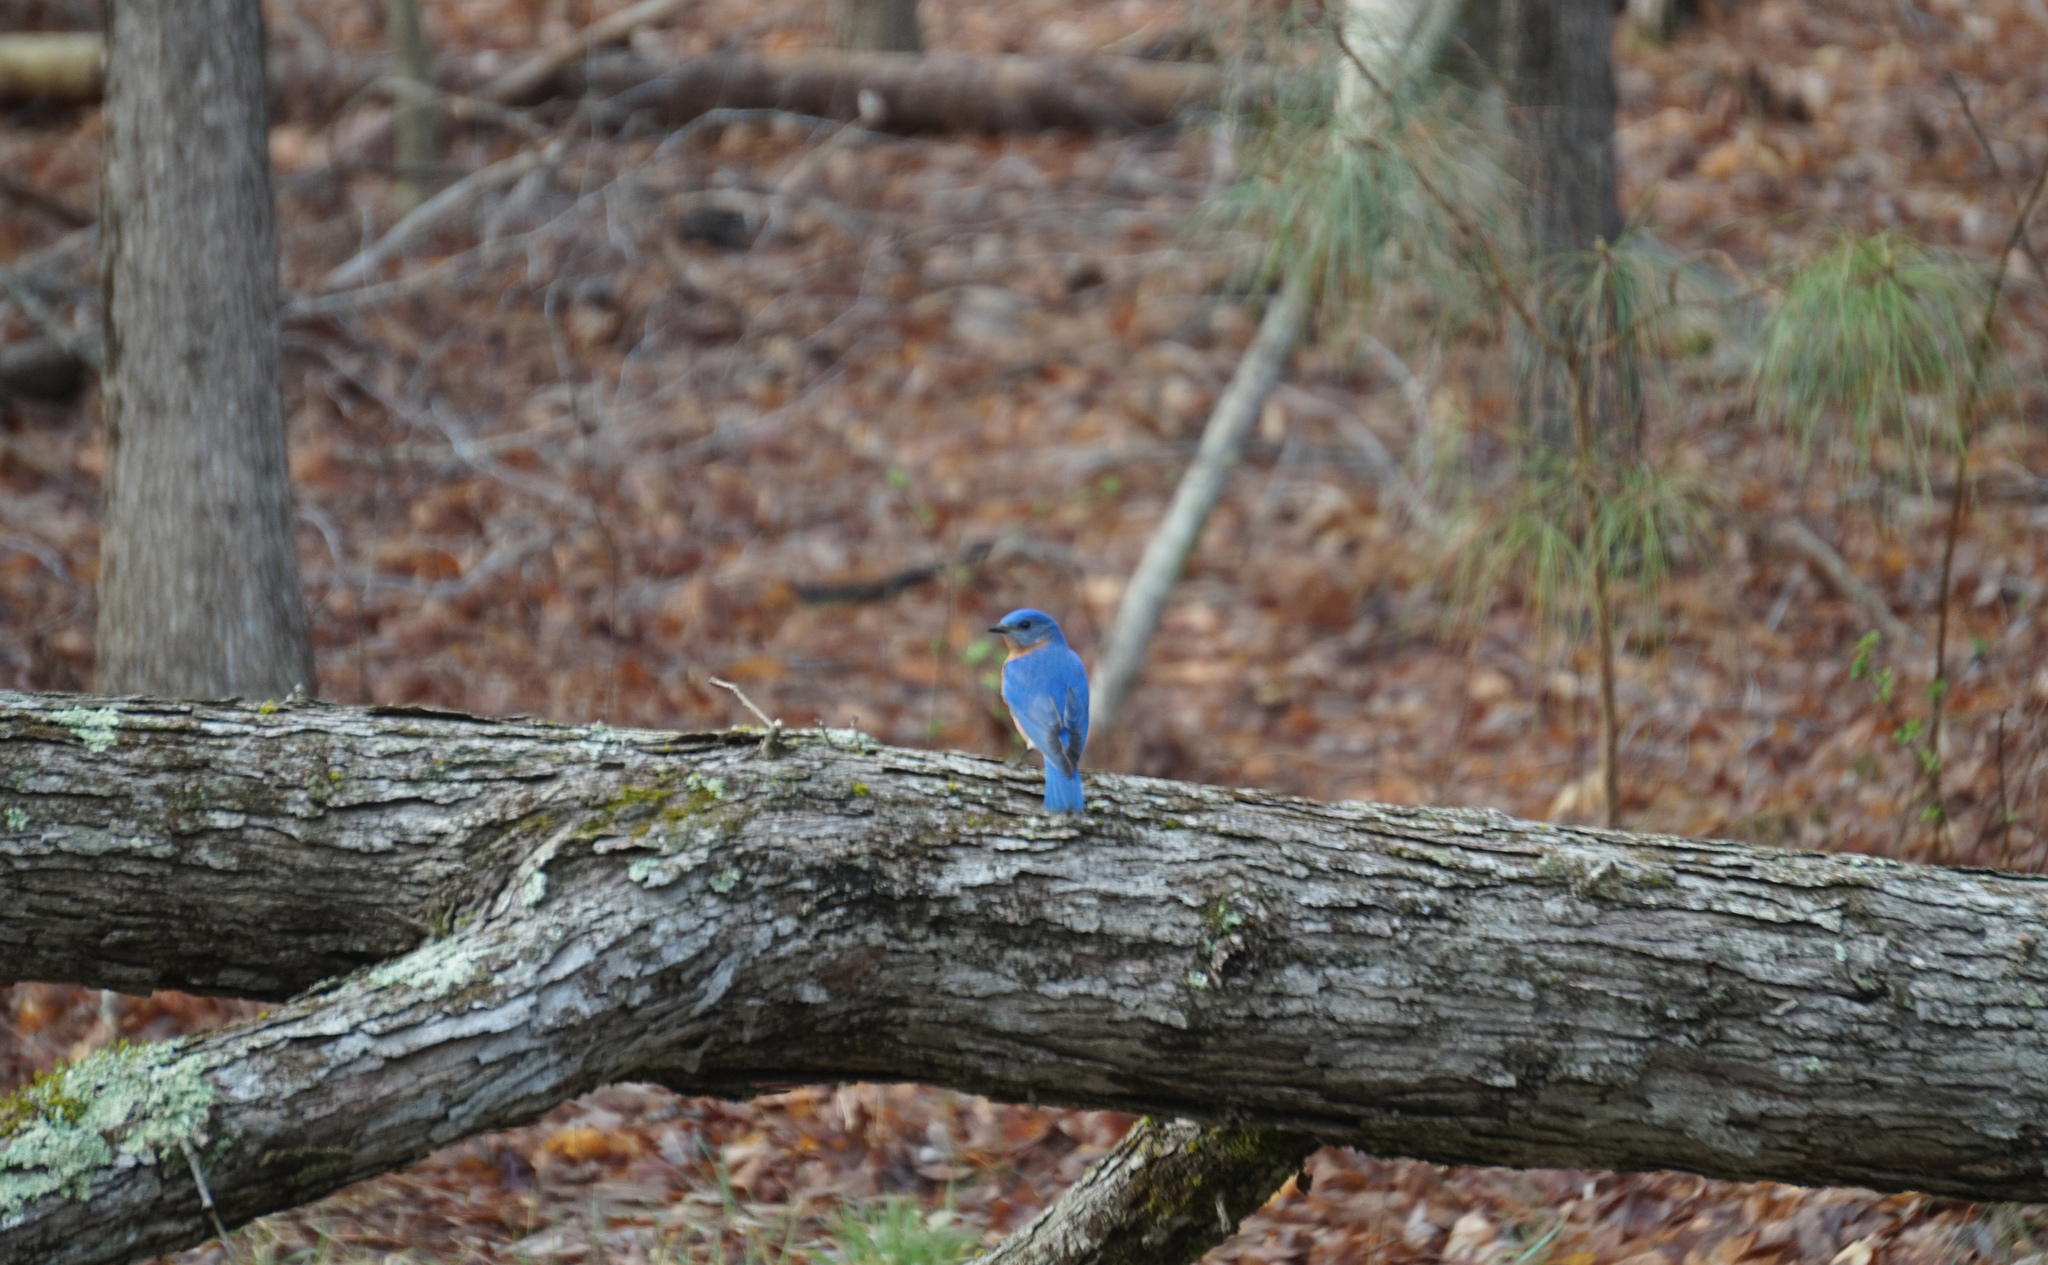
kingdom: Animalia
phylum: Chordata
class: Aves
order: Passeriformes
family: Turdidae
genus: Sialia
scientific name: Sialia sialis
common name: Eastern bluebird
